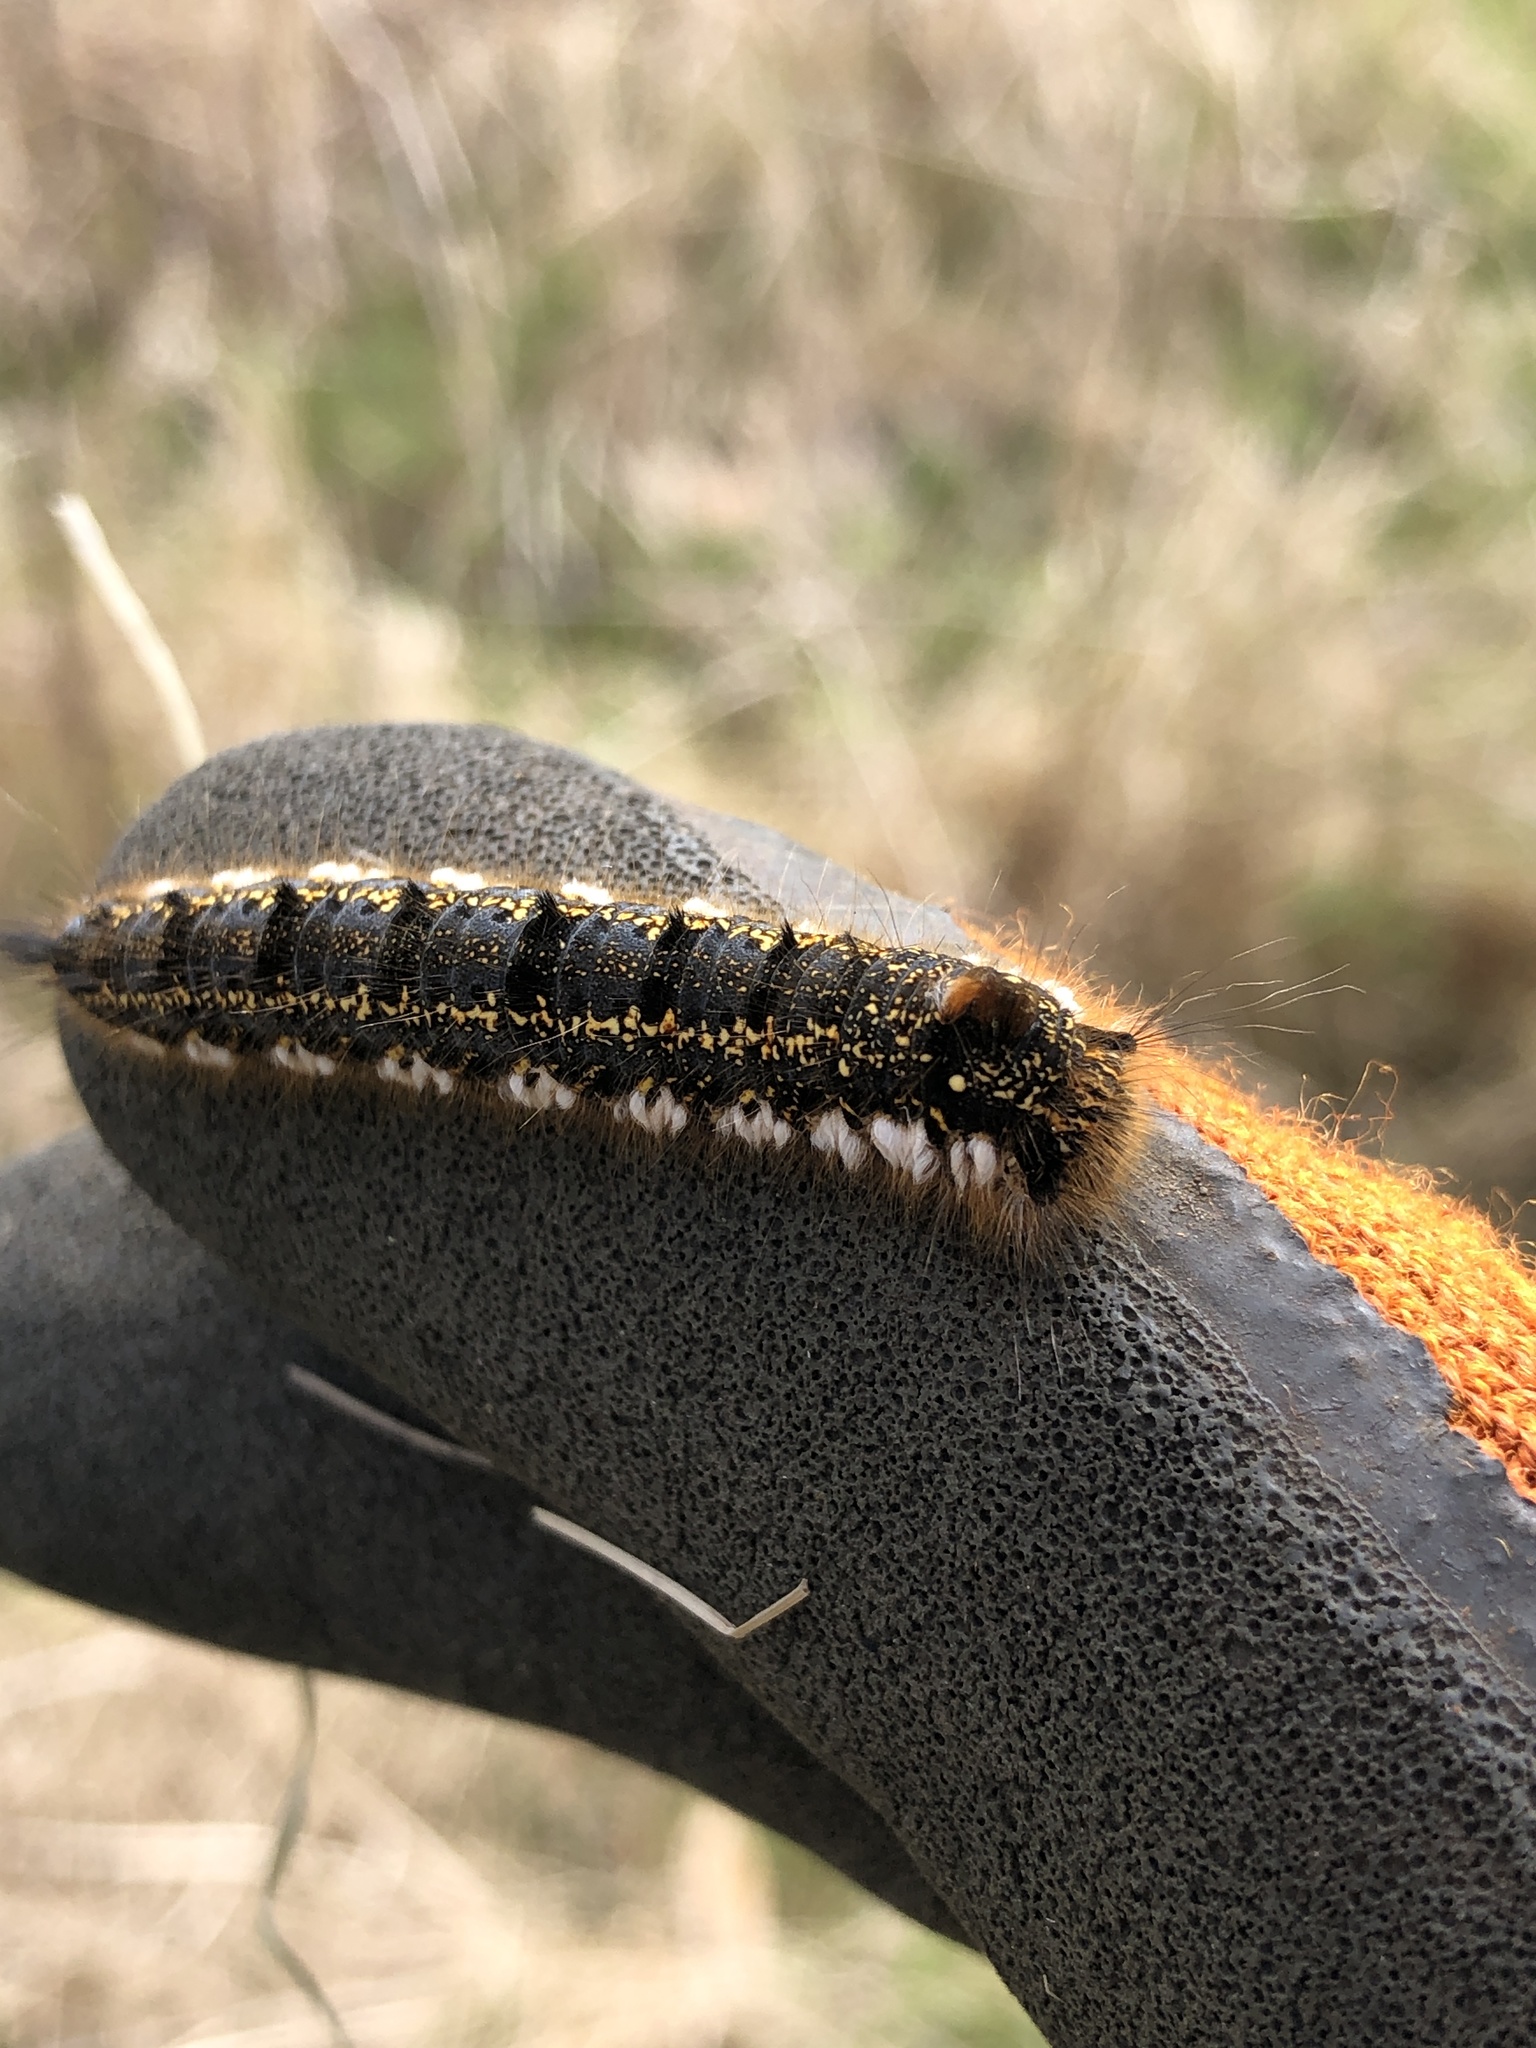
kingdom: Animalia
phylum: Arthropoda
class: Insecta
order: Lepidoptera
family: Lasiocampidae
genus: Euthrix
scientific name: Euthrix potatoria
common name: Drinker
